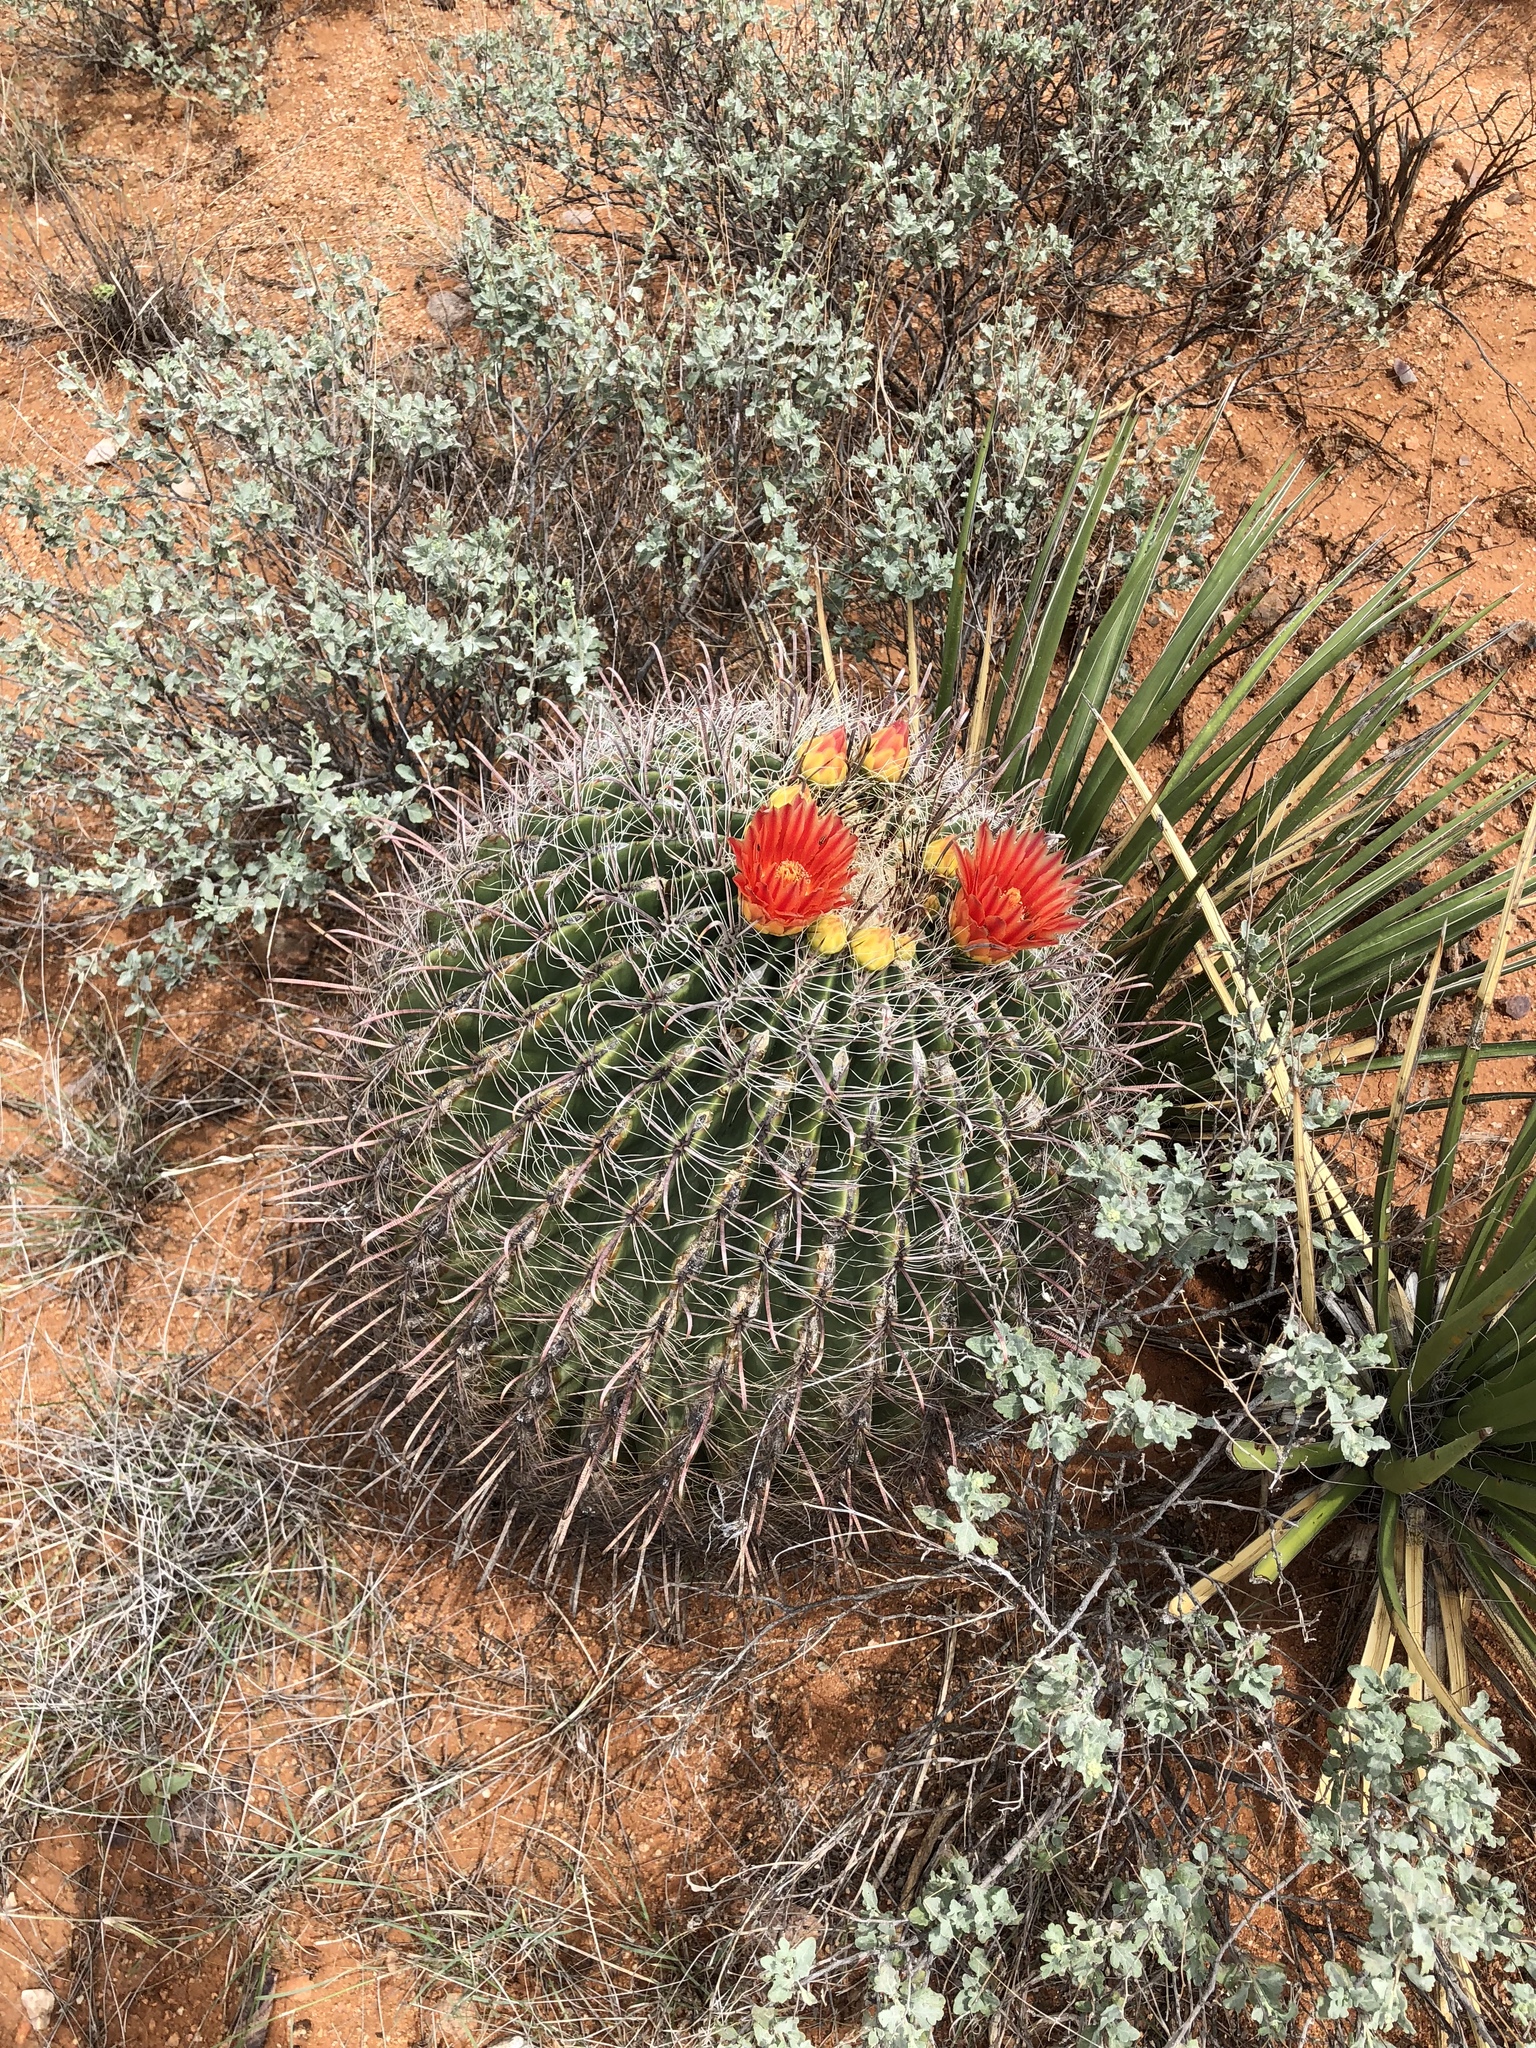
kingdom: Plantae
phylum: Tracheophyta
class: Magnoliopsida
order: Caryophyllales
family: Cactaceae
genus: Ferocactus
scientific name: Ferocactus wislizeni
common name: Candy barrel cactus
